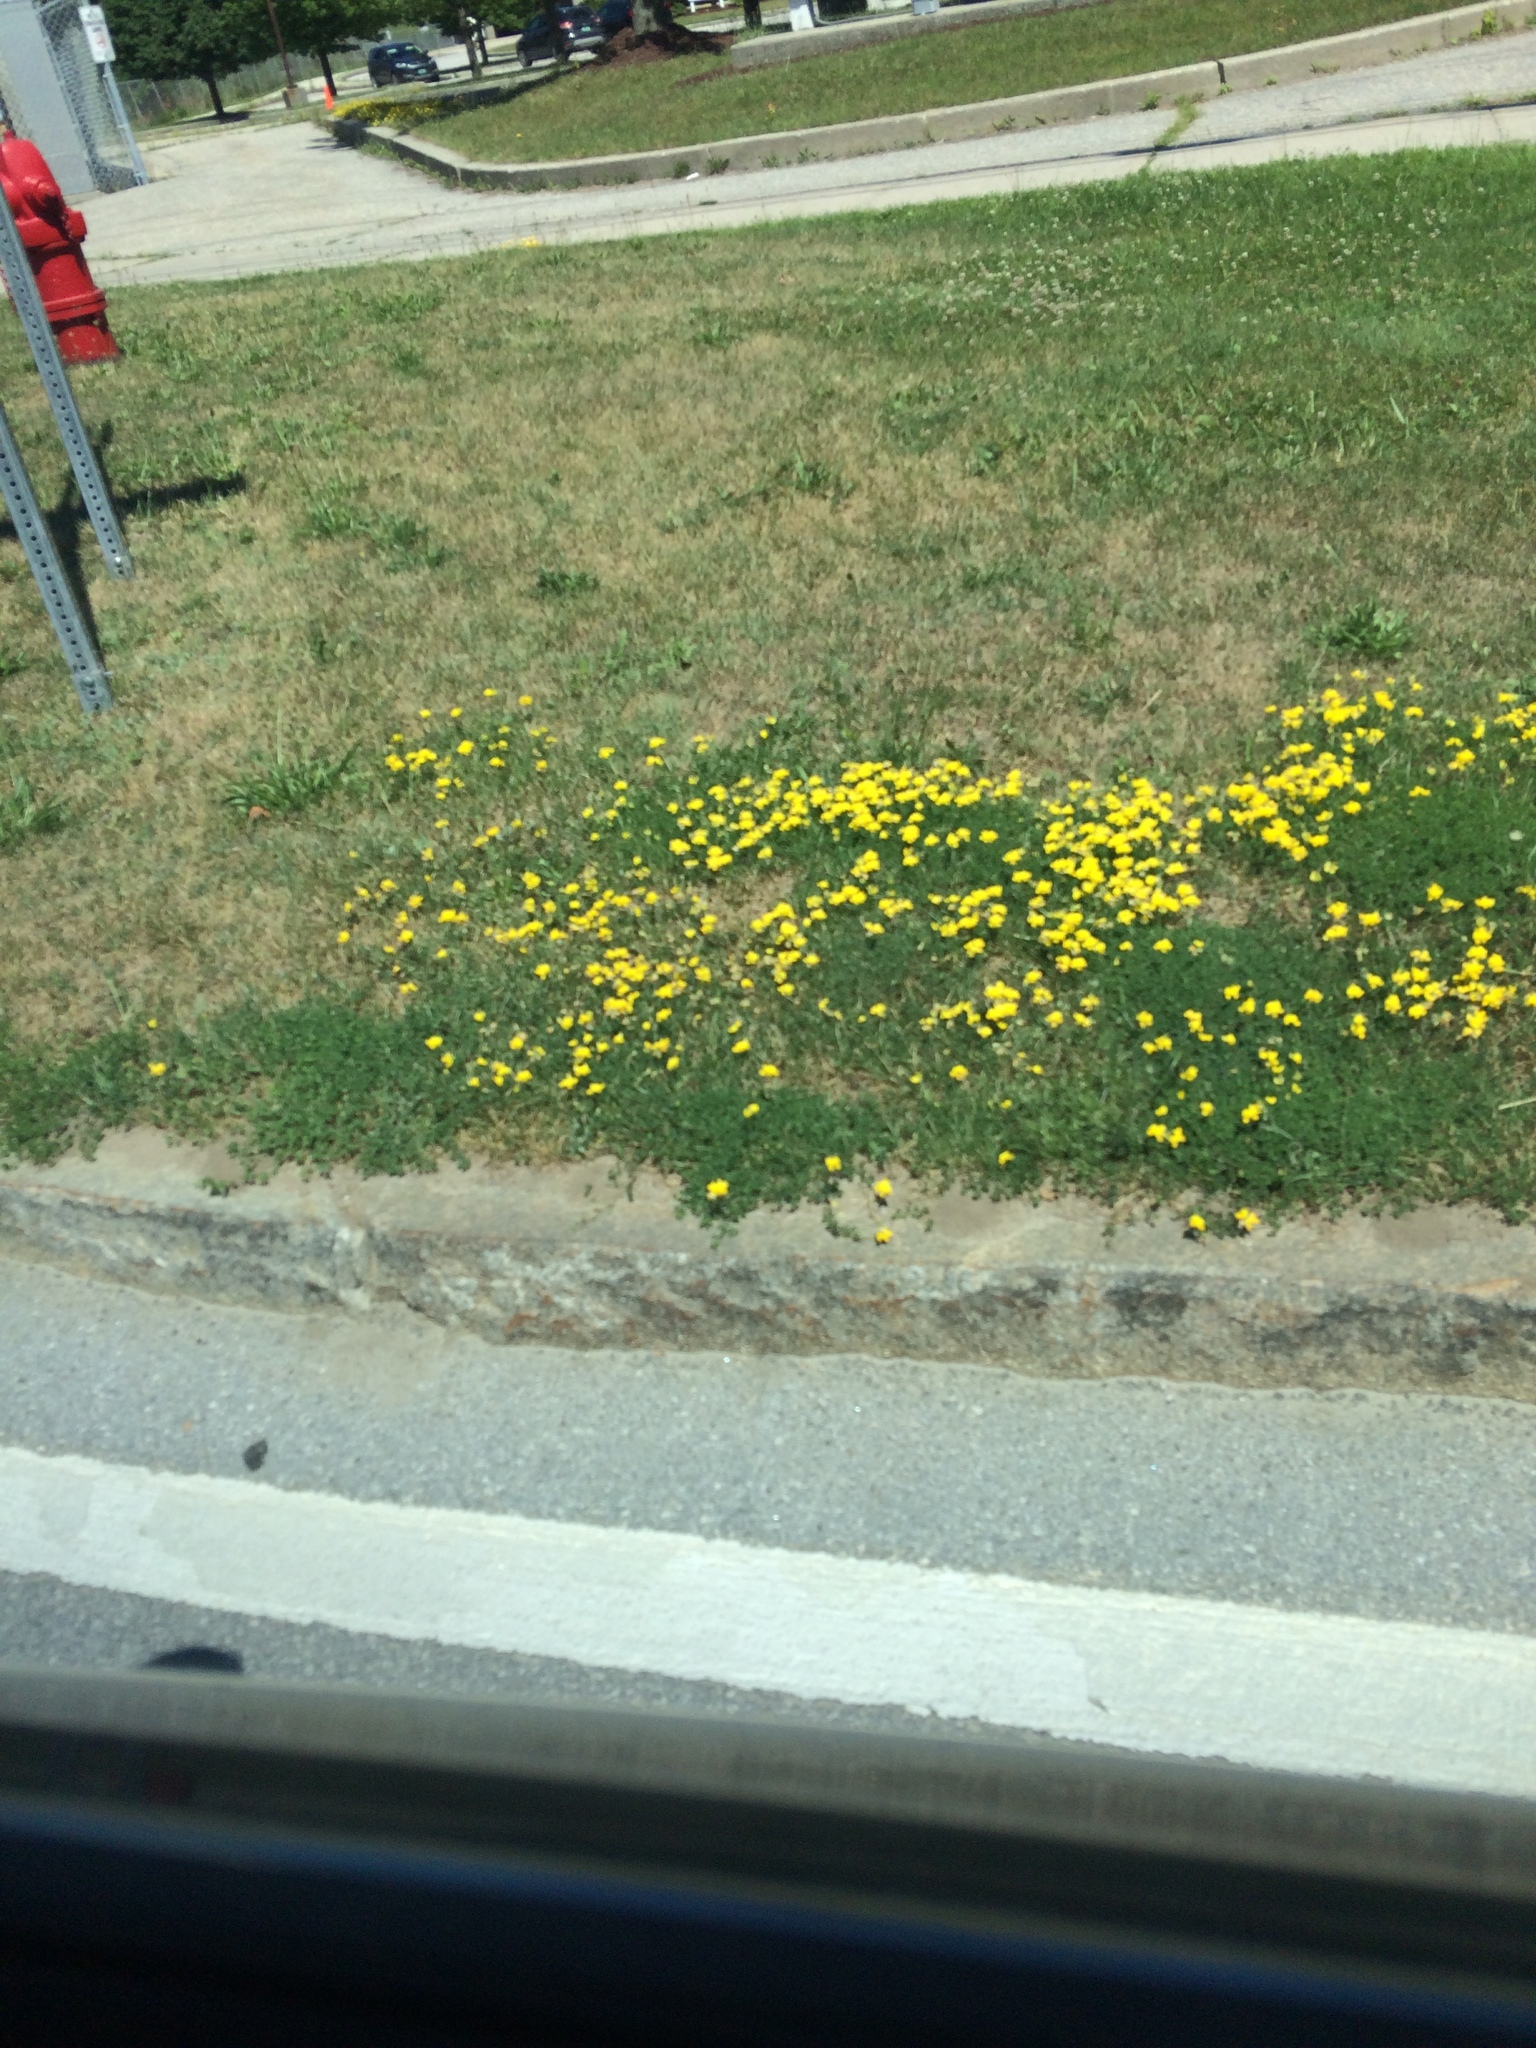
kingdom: Plantae
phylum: Tracheophyta
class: Magnoliopsida
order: Fabales
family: Fabaceae
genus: Lotus
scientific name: Lotus corniculatus
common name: Common bird's-foot-trefoil
